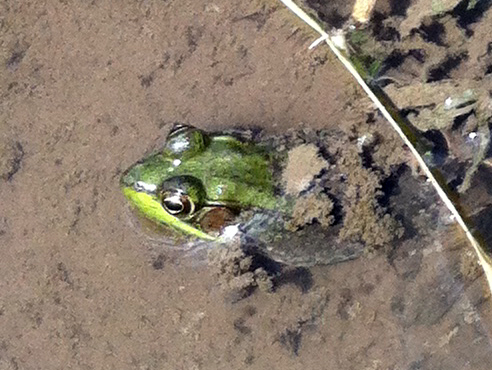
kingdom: Animalia
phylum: Chordata
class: Amphibia
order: Anura
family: Ranidae
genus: Lithobates
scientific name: Lithobates clamitans
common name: Green frog
